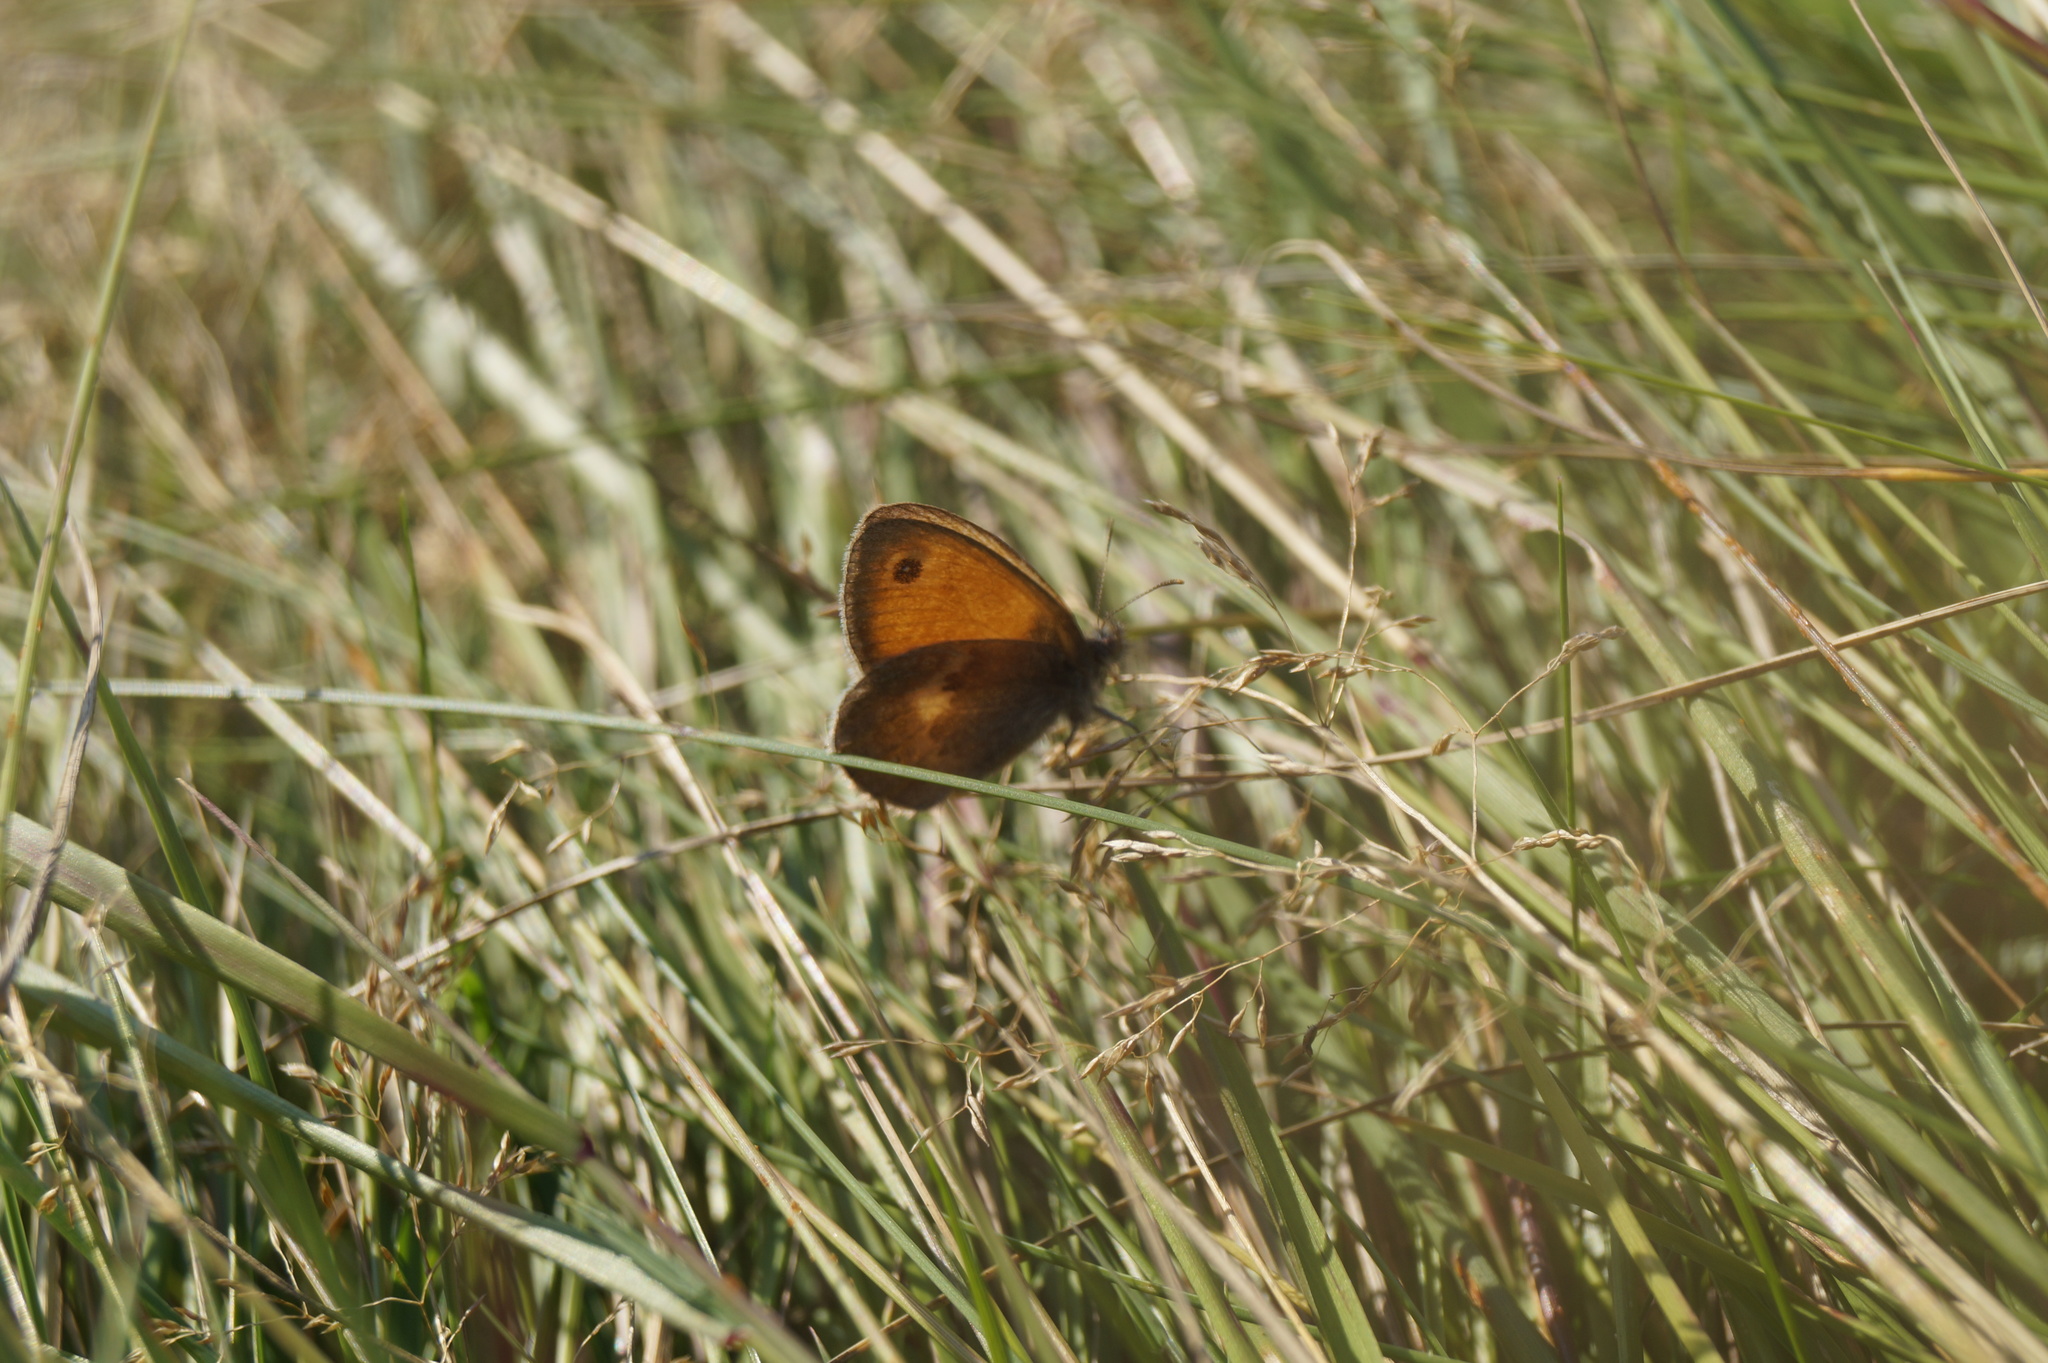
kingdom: Animalia
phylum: Arthropoda
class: Insecta
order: Lepidoptera
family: Nymphalidae
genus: Coenonympha
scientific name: Coenonympha pamphilus
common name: Small heath
